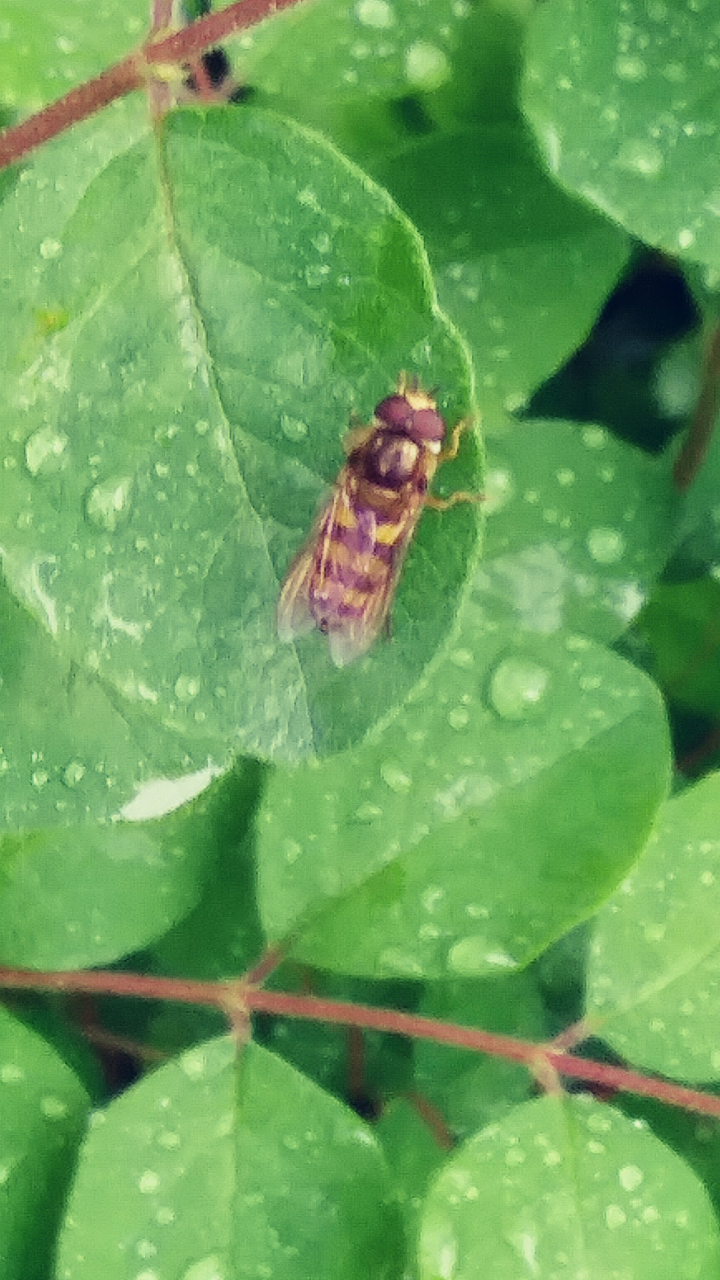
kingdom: Animalia
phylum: Arthropoda
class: Insecta
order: Diptera
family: Syrphidae
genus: Eupeodes
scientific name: Eupeodes
